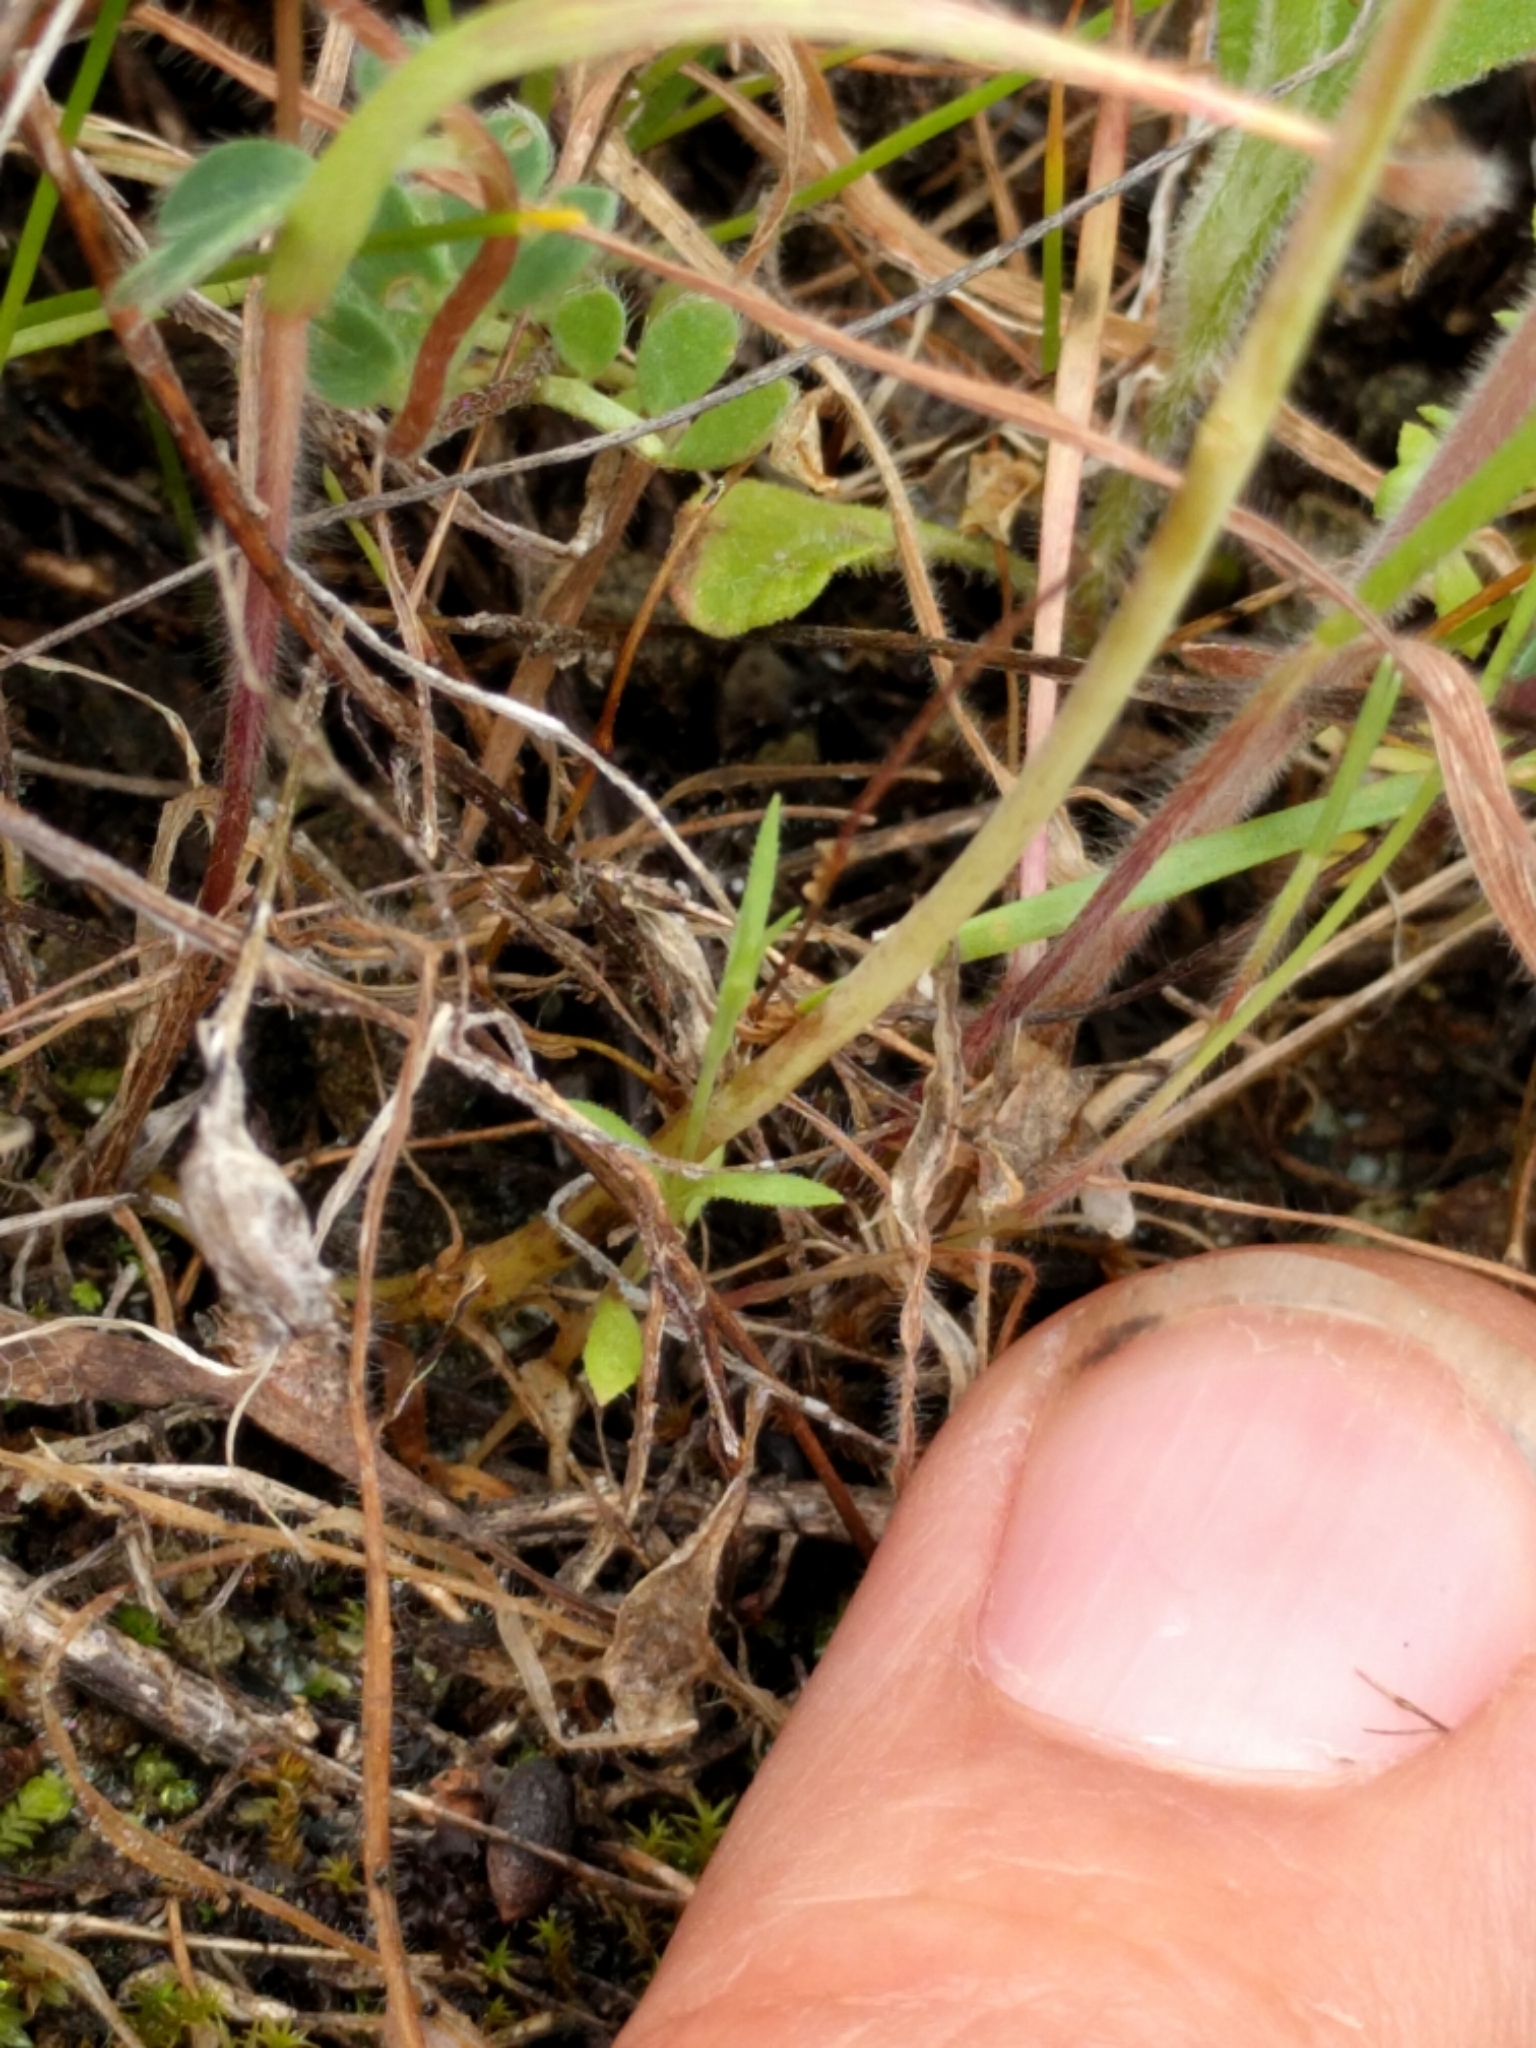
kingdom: Plantae
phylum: Tracheophyta
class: Magnoliopsida
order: Brassicales
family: Brassicaceae
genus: Thysanocarpus
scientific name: Thysanocarpus radians
